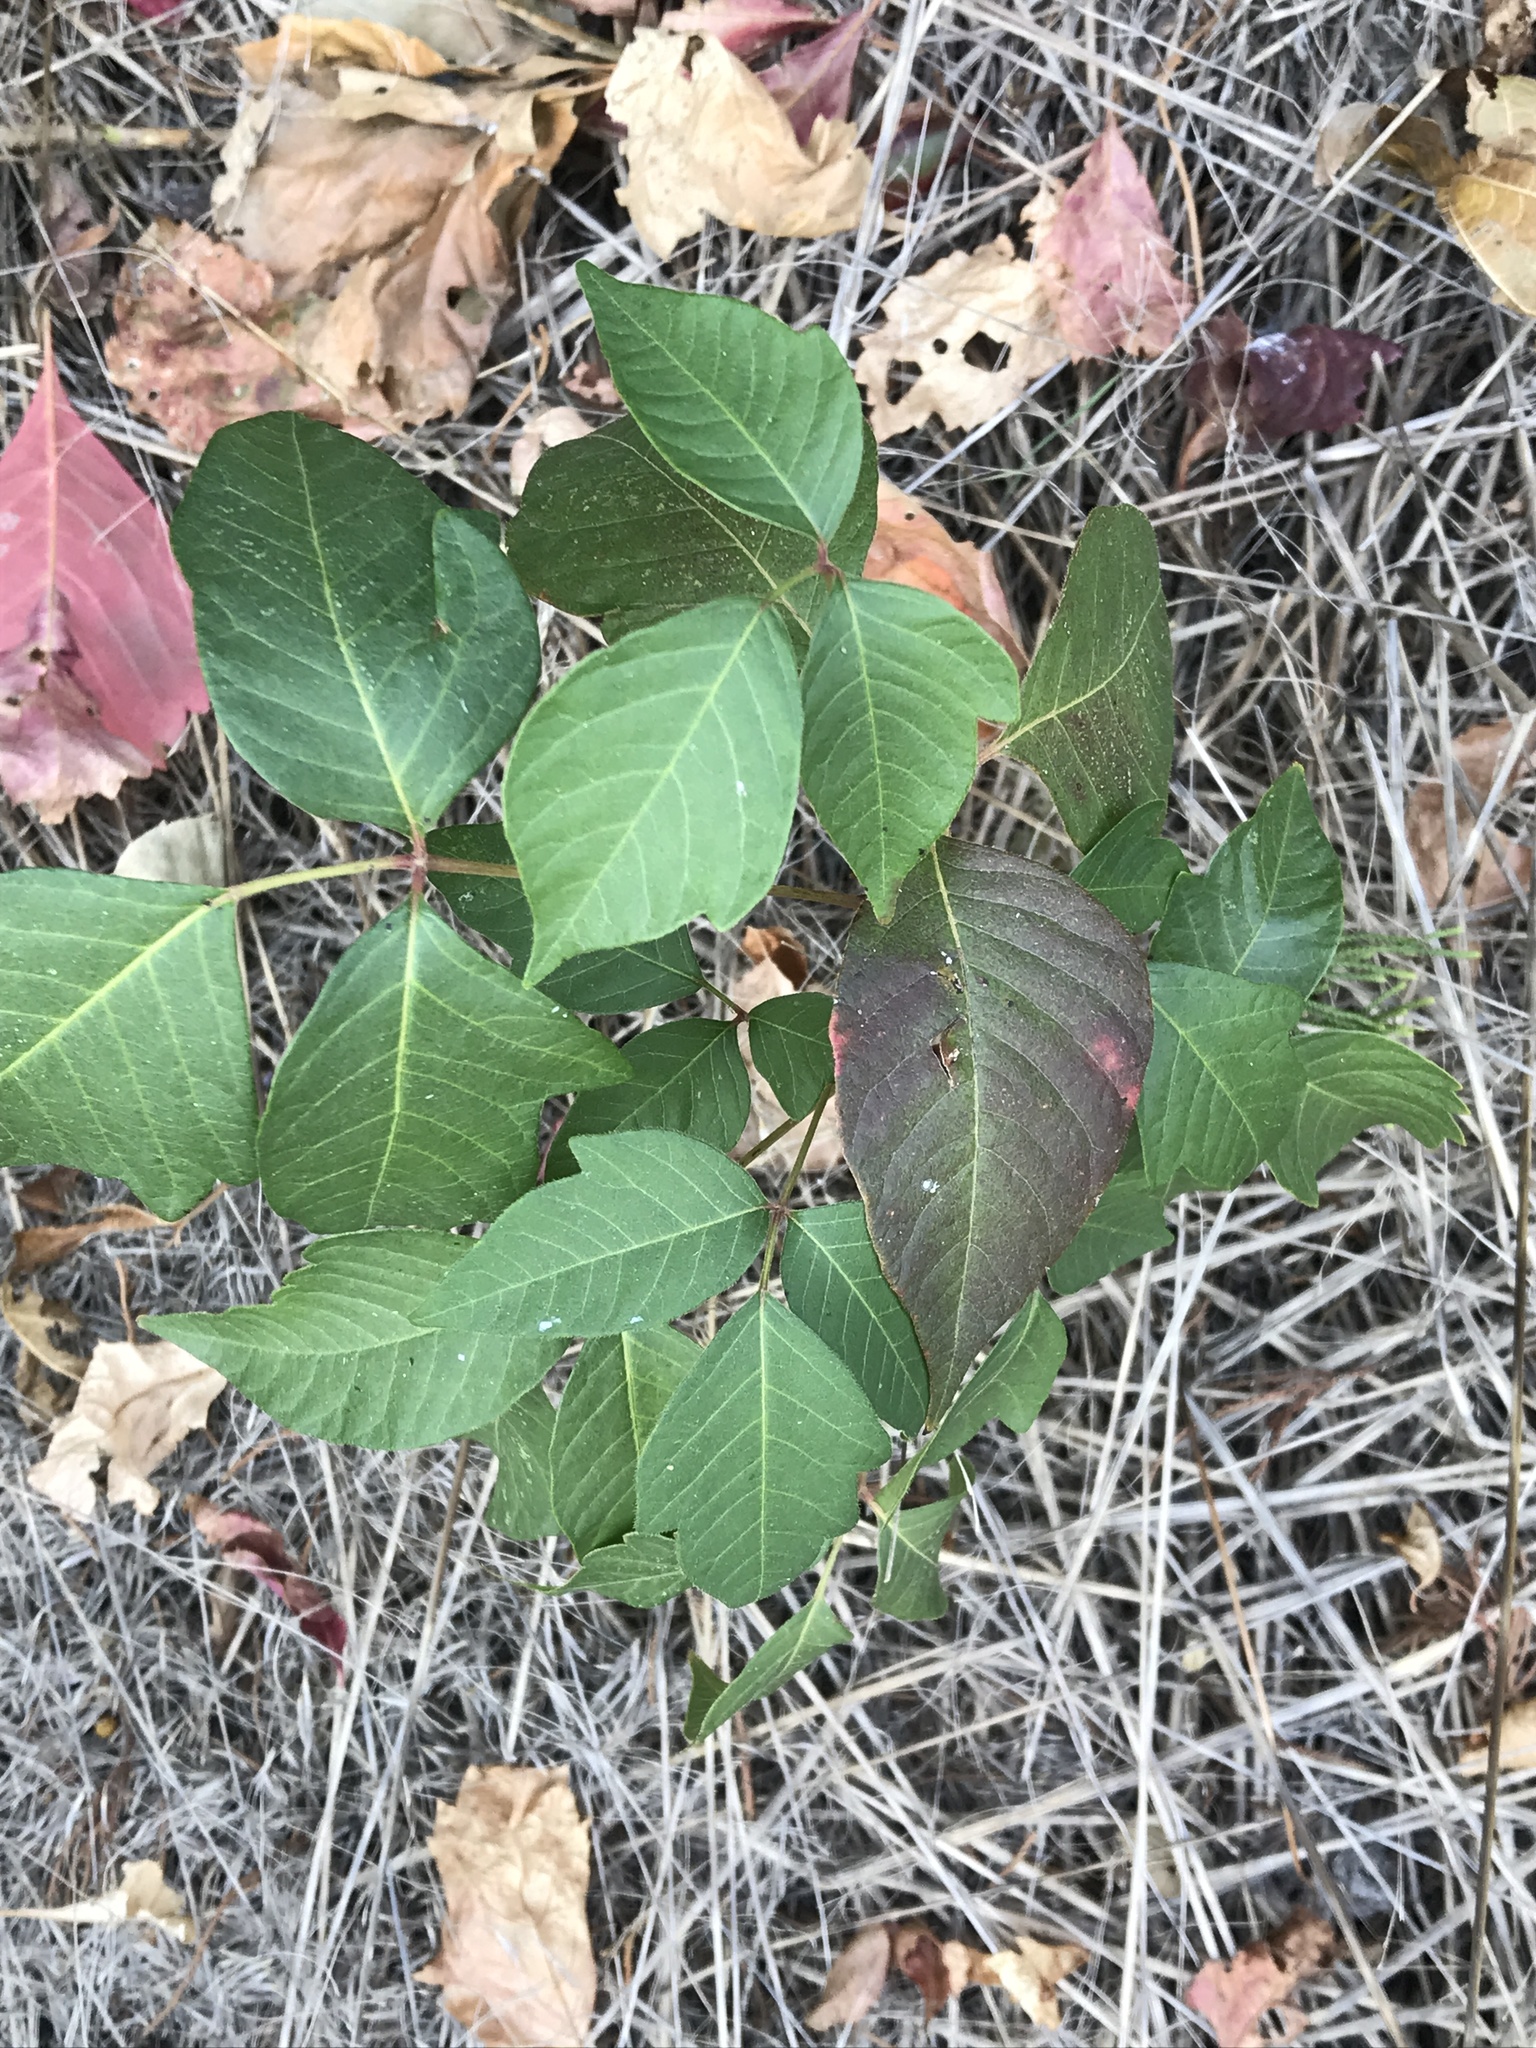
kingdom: Plantae
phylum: Tracheophyta
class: Magnoliopsida
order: Sapindales
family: Anacardiaceae
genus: Toxicodendron
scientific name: Toxicodendron radicans
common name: Poison ivy
